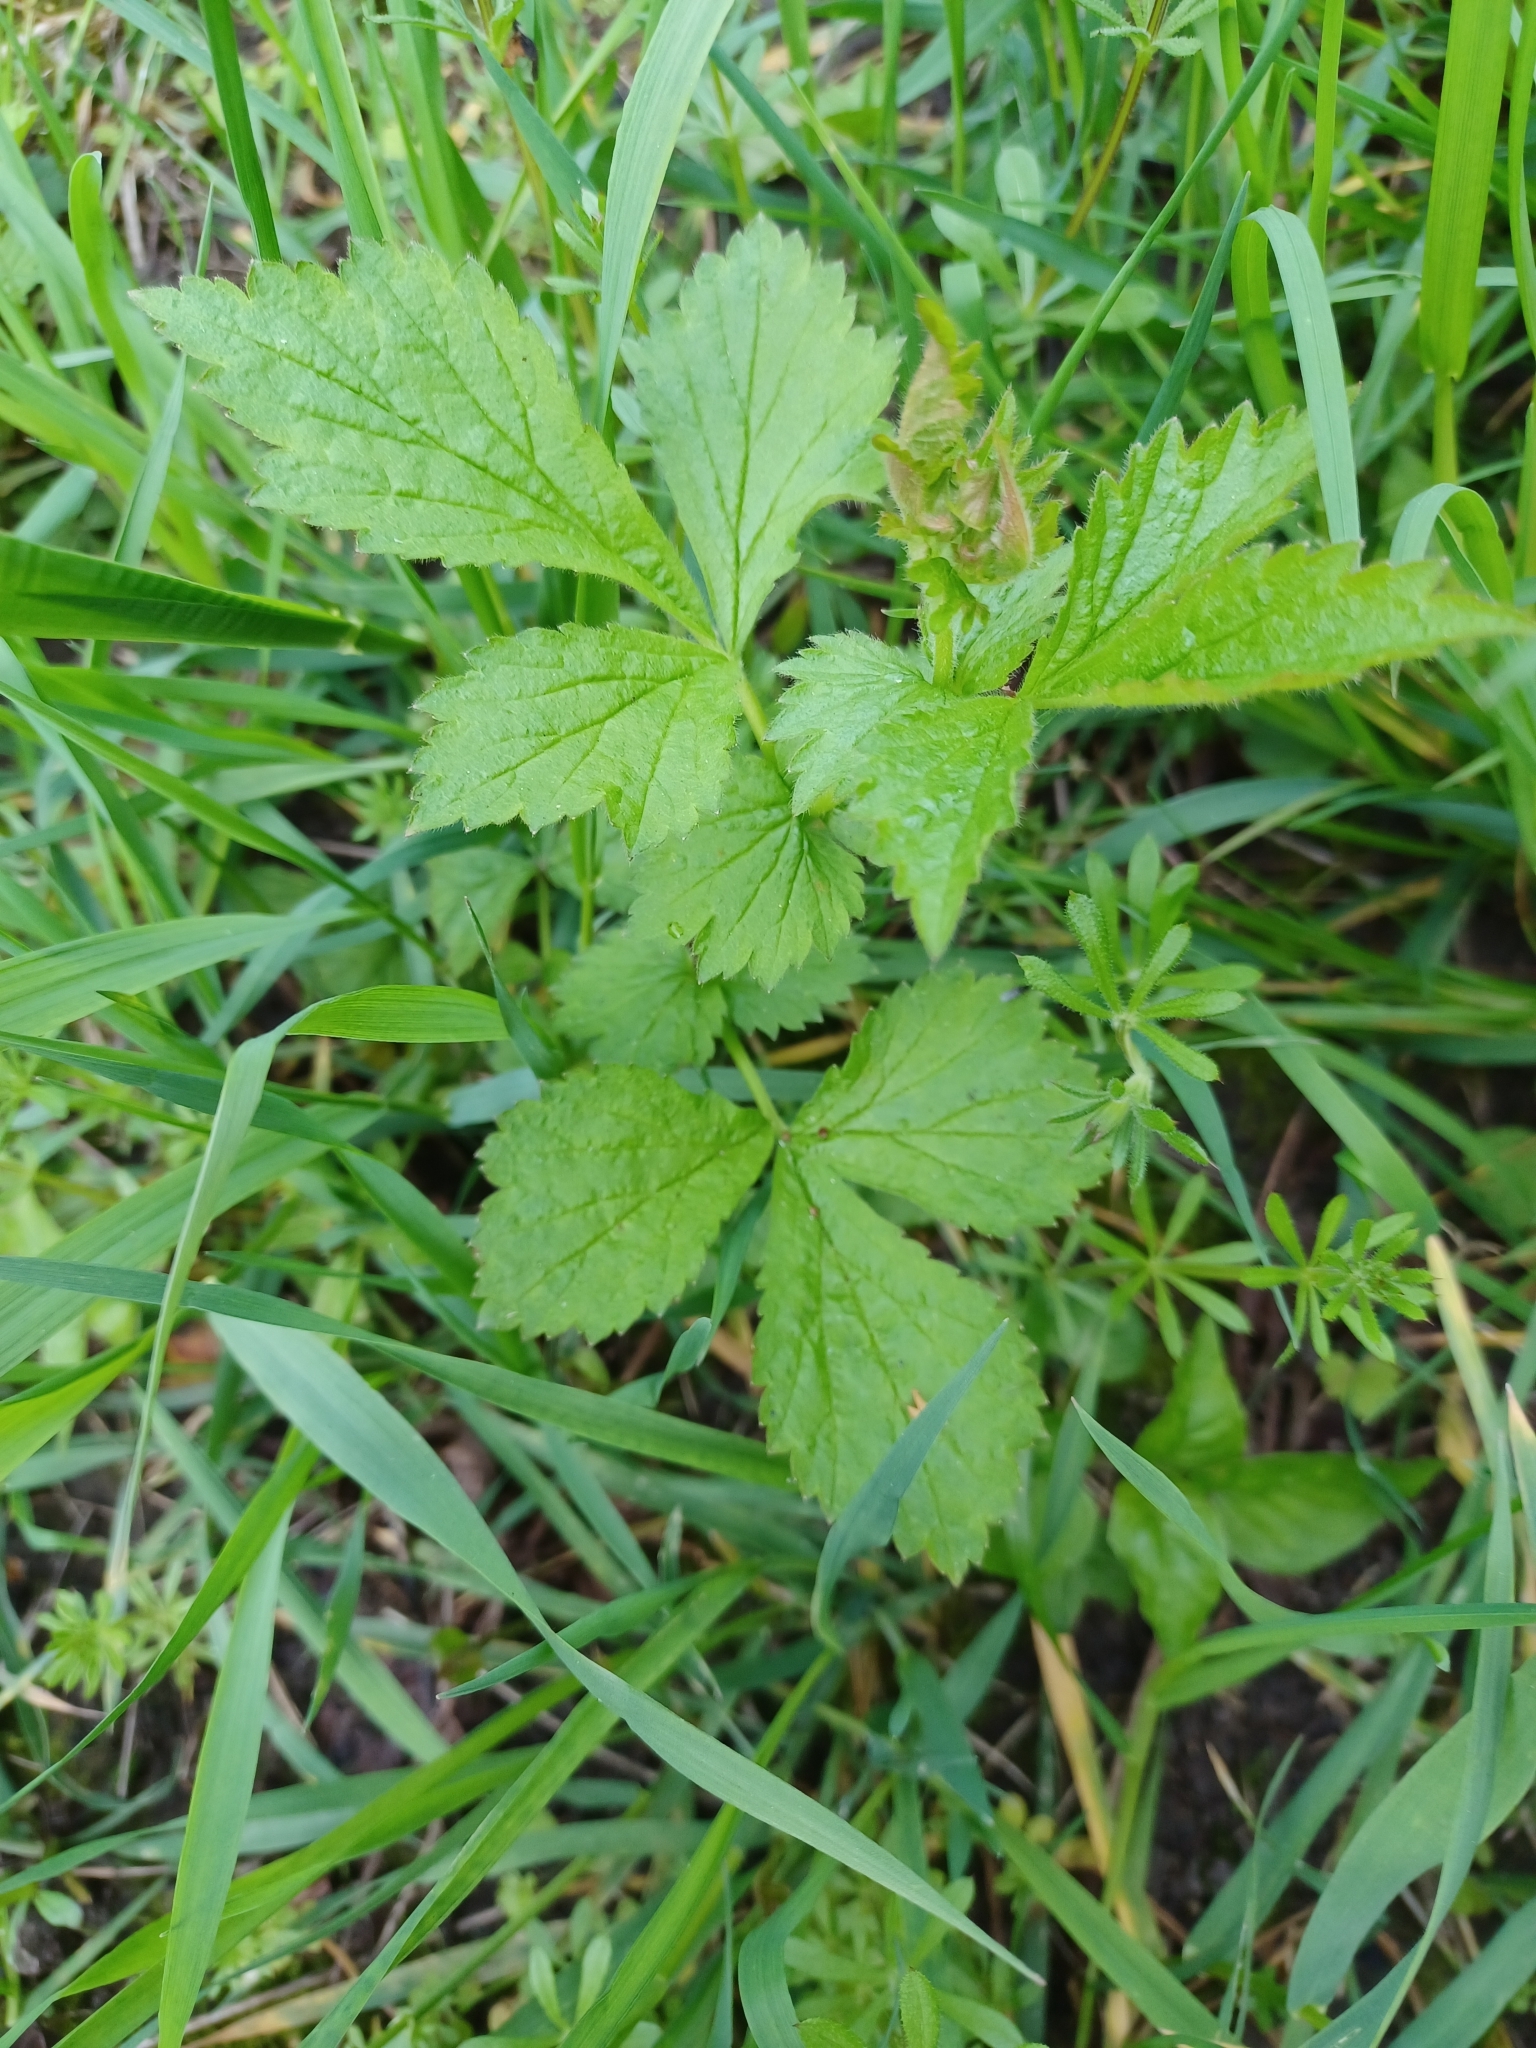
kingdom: Plantae
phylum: Tracheophyta
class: Magnoliopsida
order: Rosales
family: Rosaceae
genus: Geum
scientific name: Geum urbanum
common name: Wood avens
